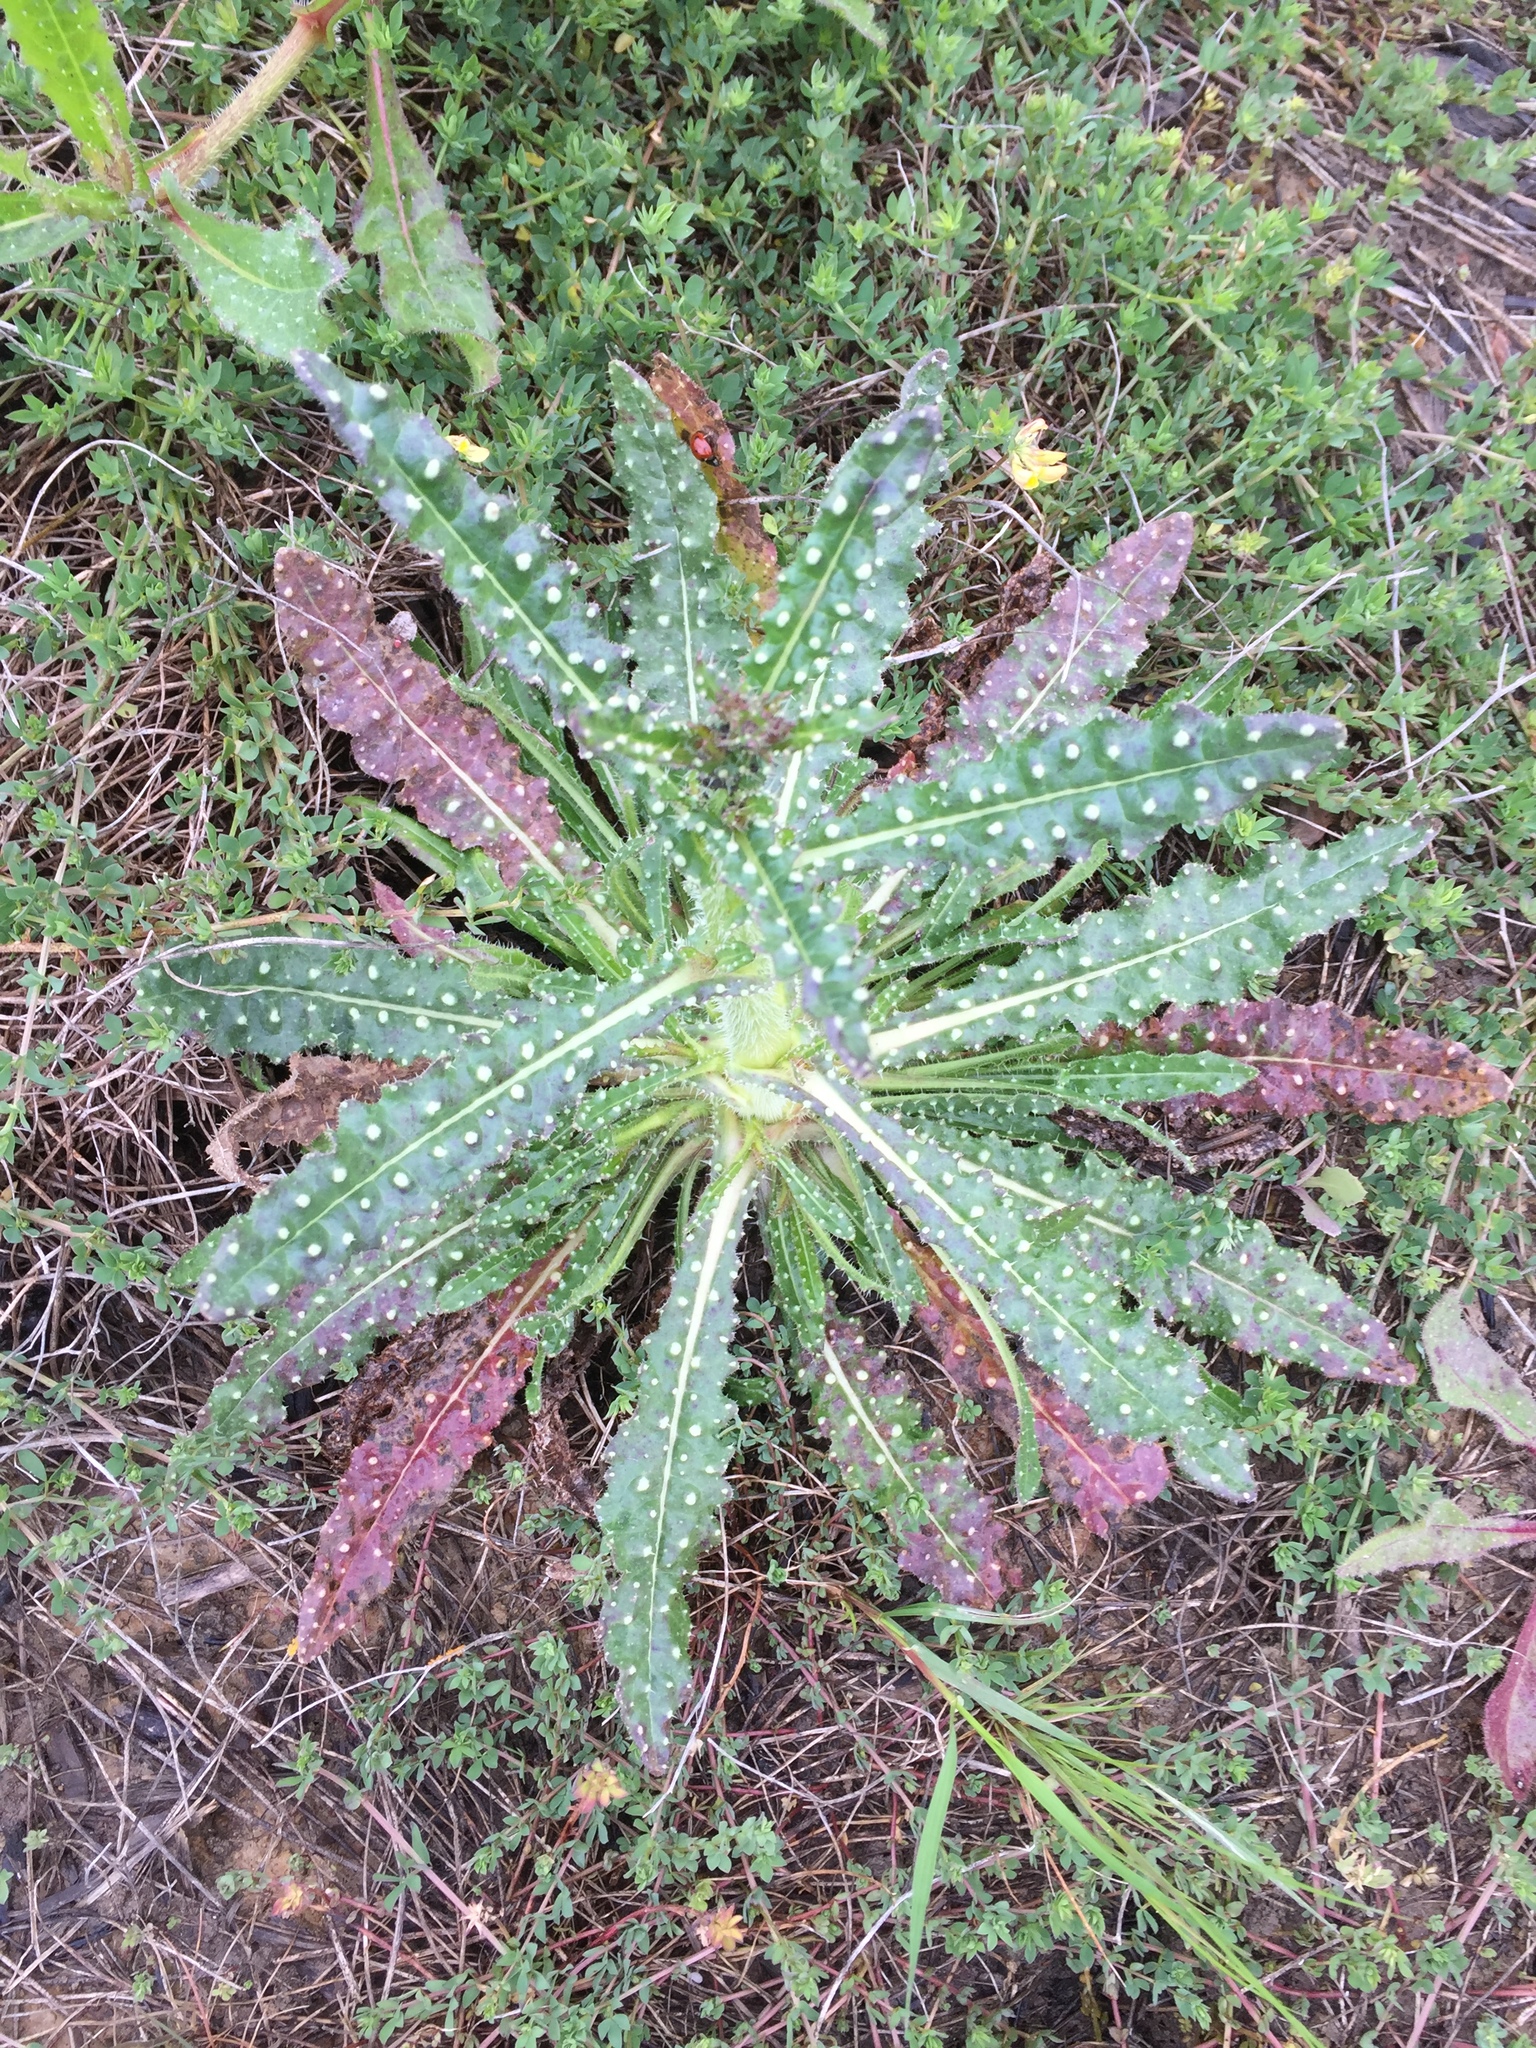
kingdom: Plantae
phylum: Tracheophyta
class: Magnoliopsida
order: Asterales
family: Asteraceae
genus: Helminthotheca
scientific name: Helminthotheca echioides
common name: Ox-tongue
